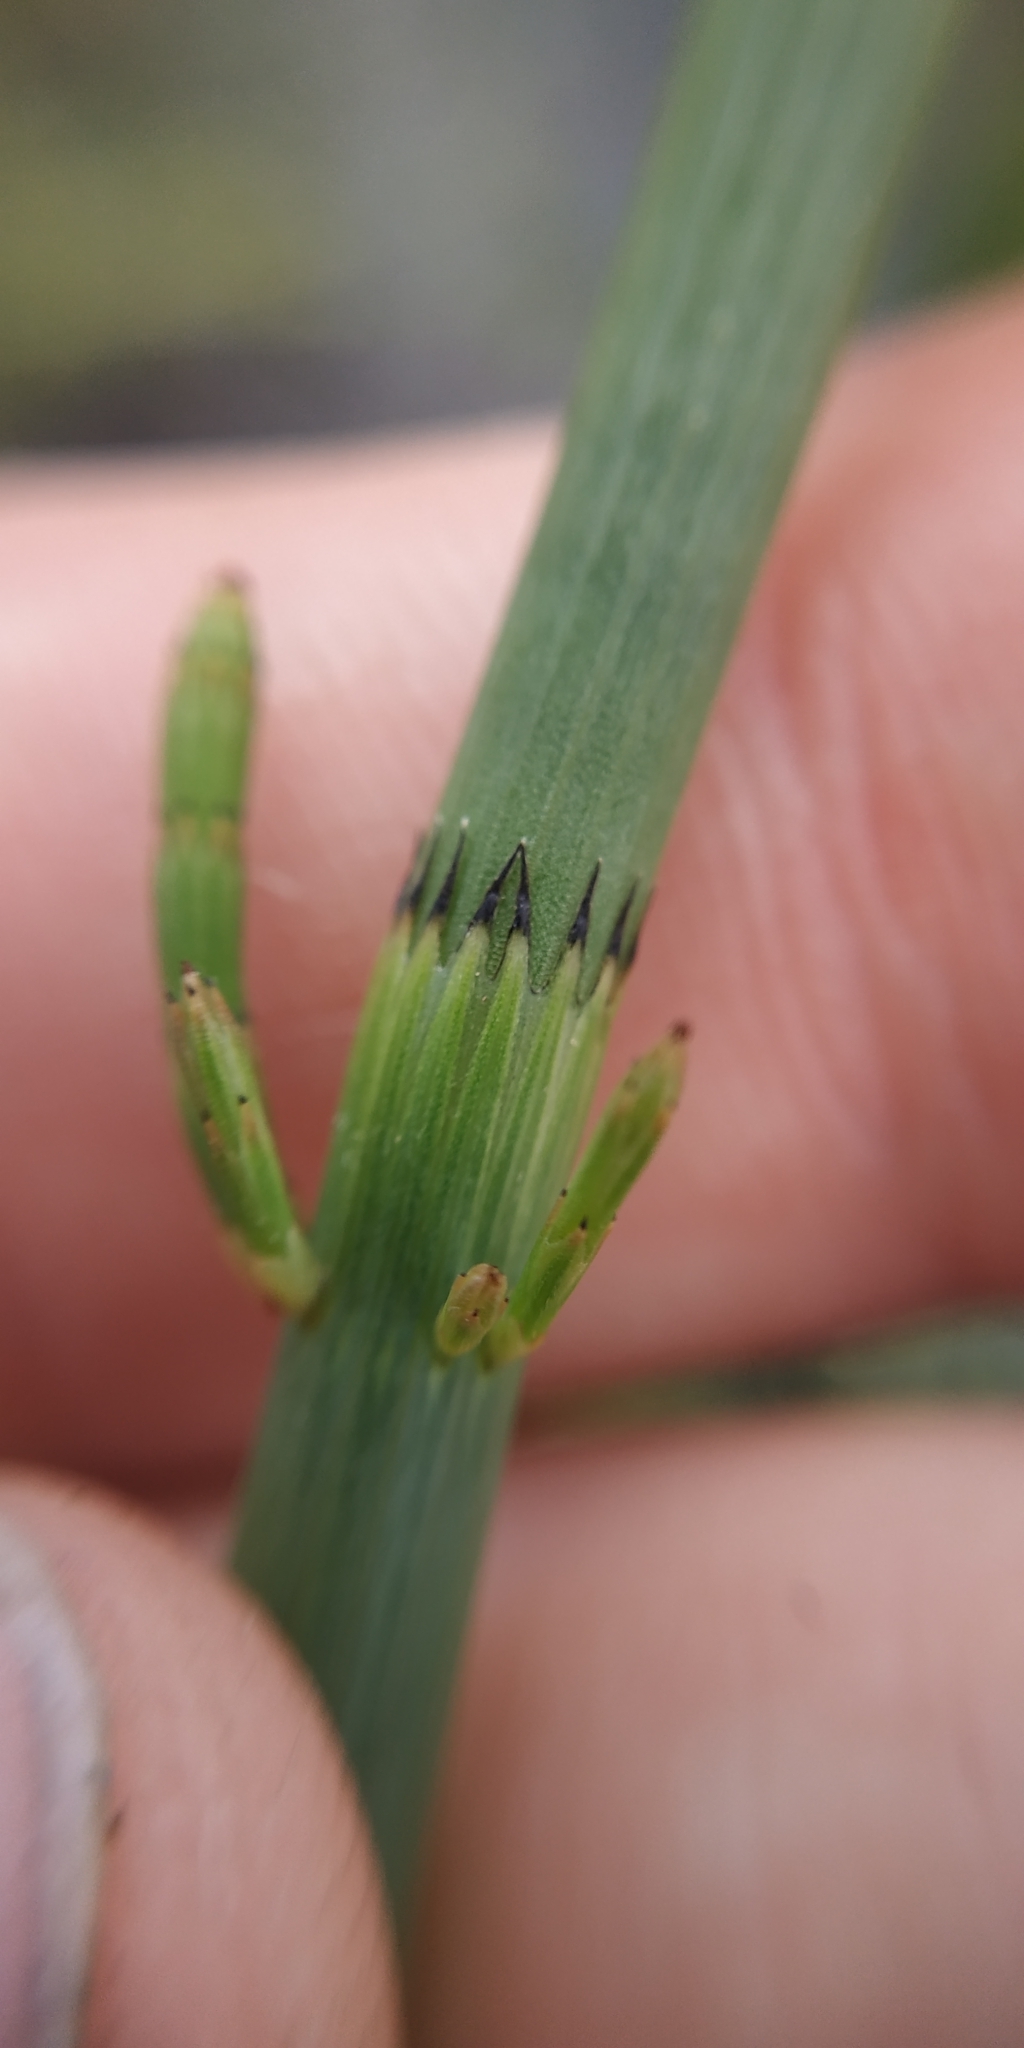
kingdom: Plantae
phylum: Tracheophyta
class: Polypodiopsida
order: Equisetales
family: Equisetaceae
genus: Equisetum
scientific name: Equisetum fluviatile
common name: Water horsetail
